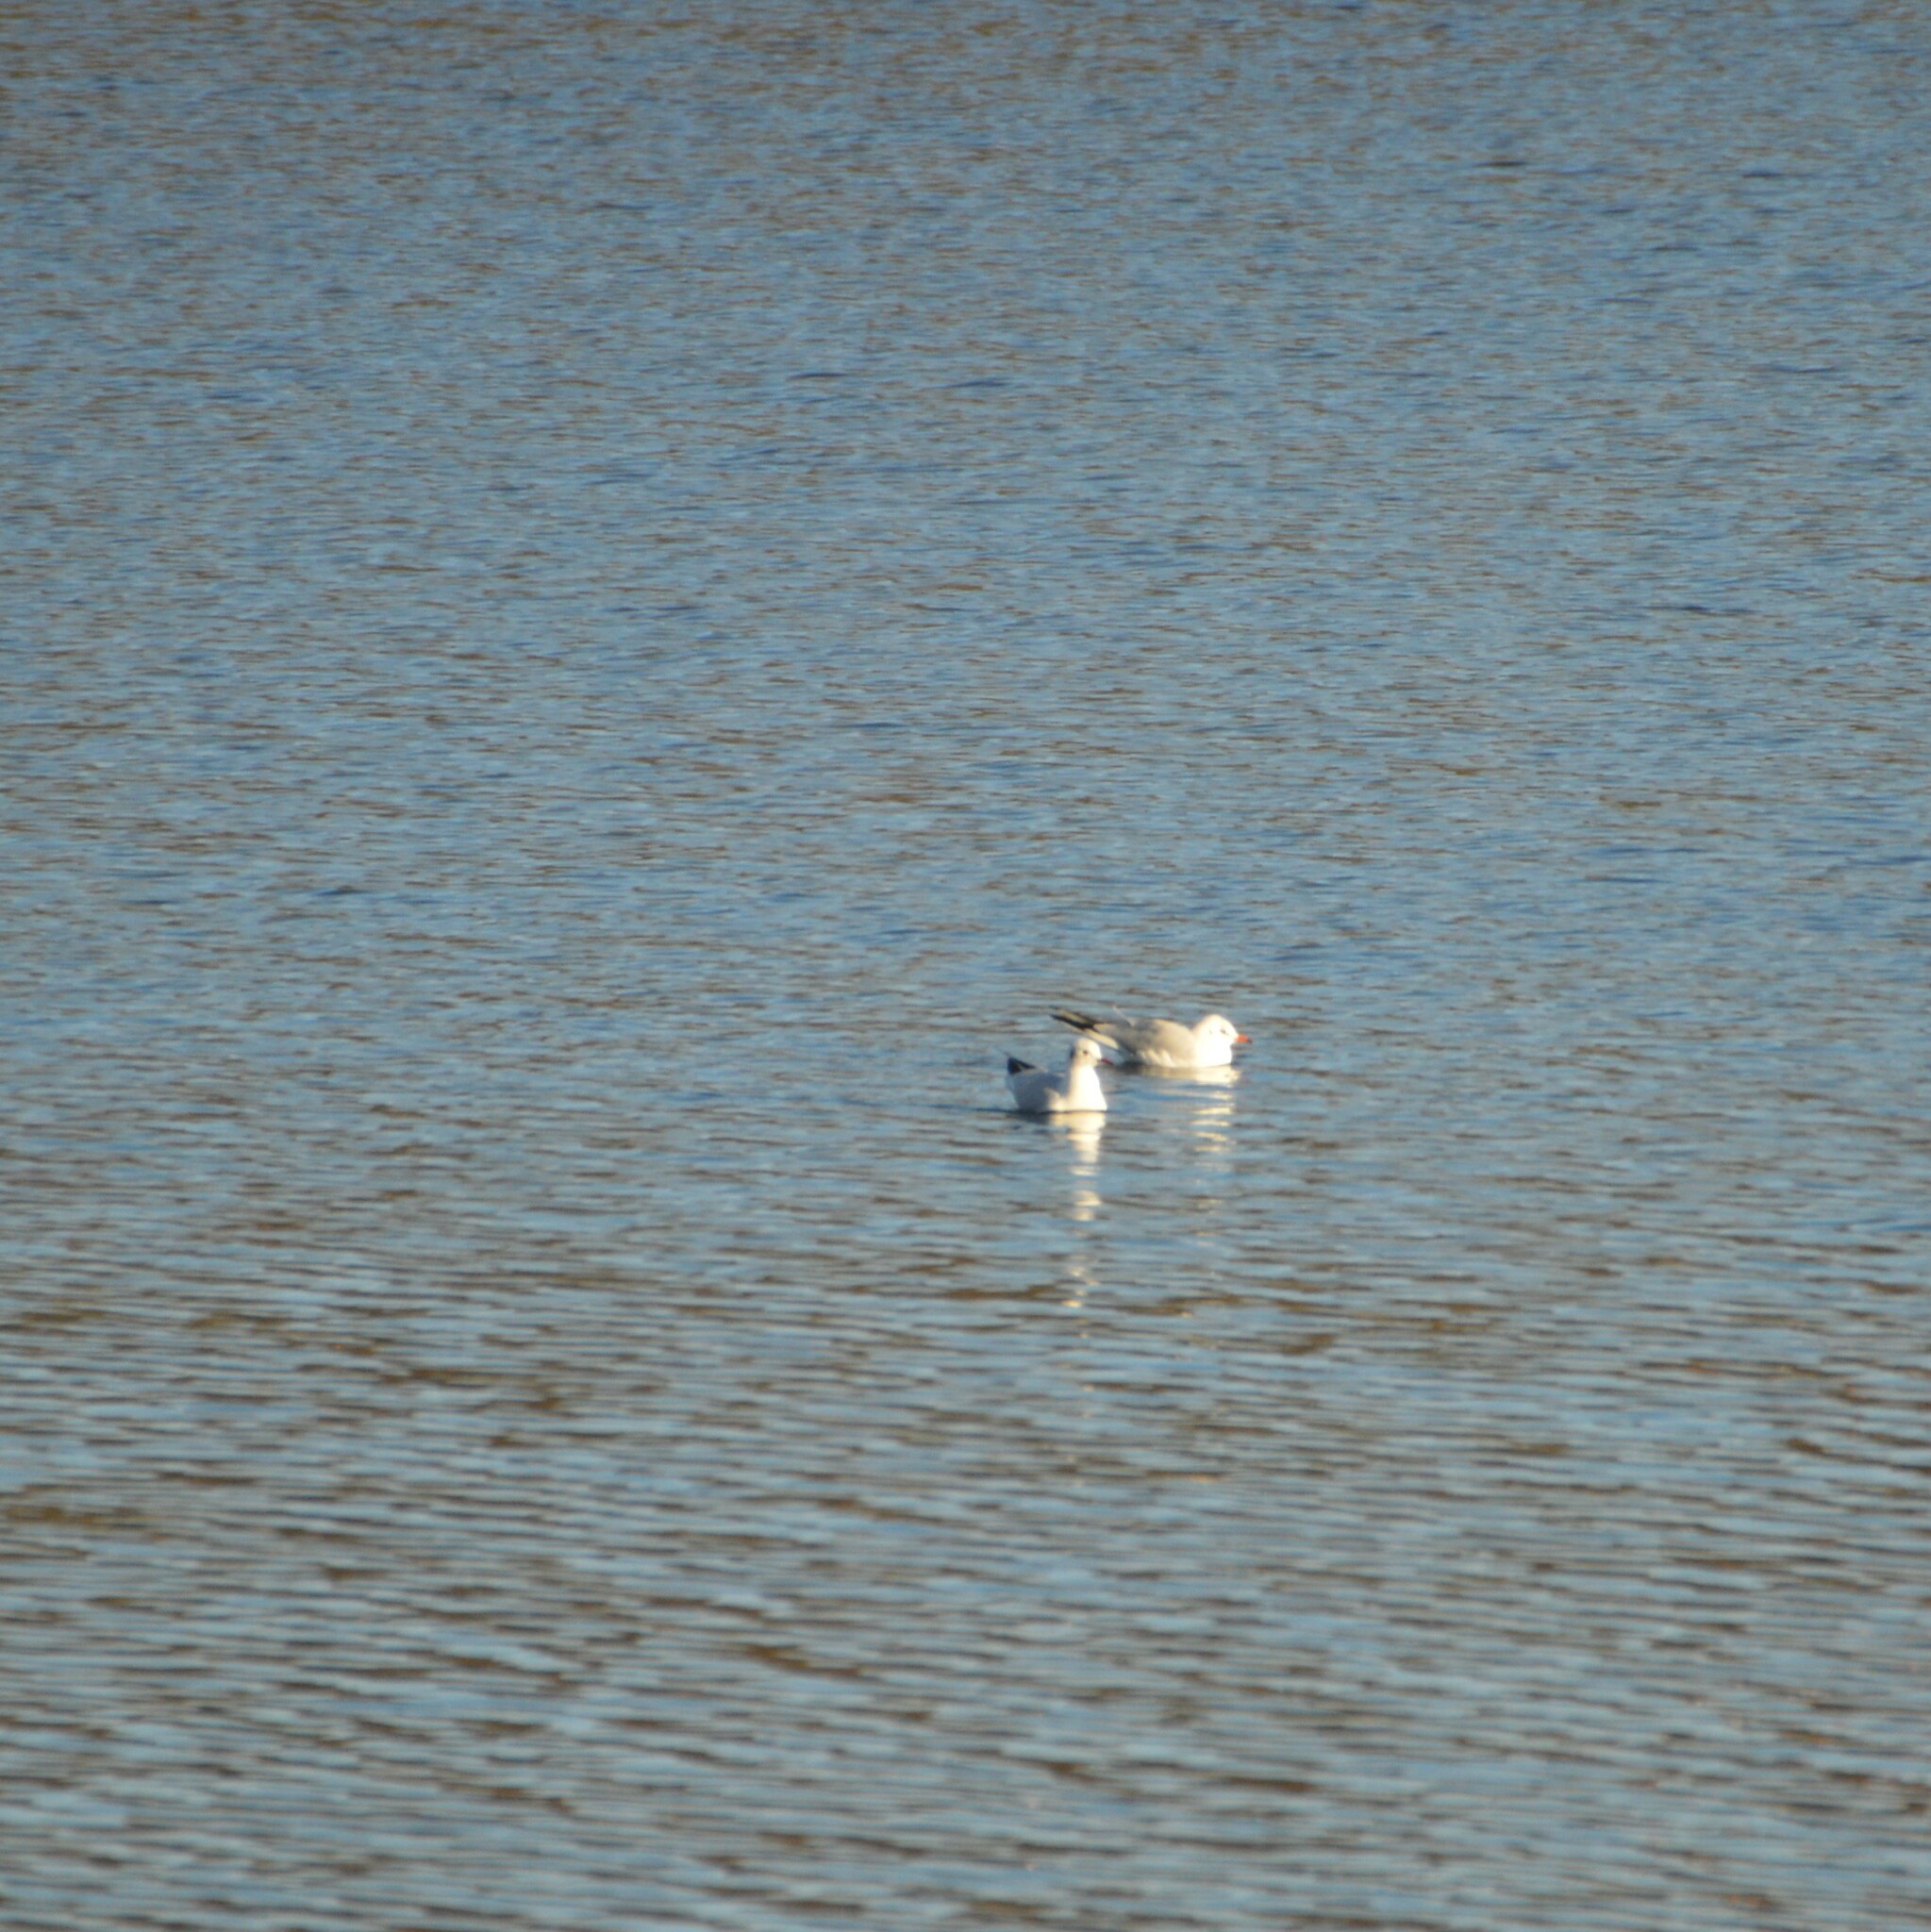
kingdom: Animalia
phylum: Chordata
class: Aves
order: Charadriiformes
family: Laridae
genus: Chroicocephalus
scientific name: Chroicocephalus ridibundus
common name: Black-headed gull
